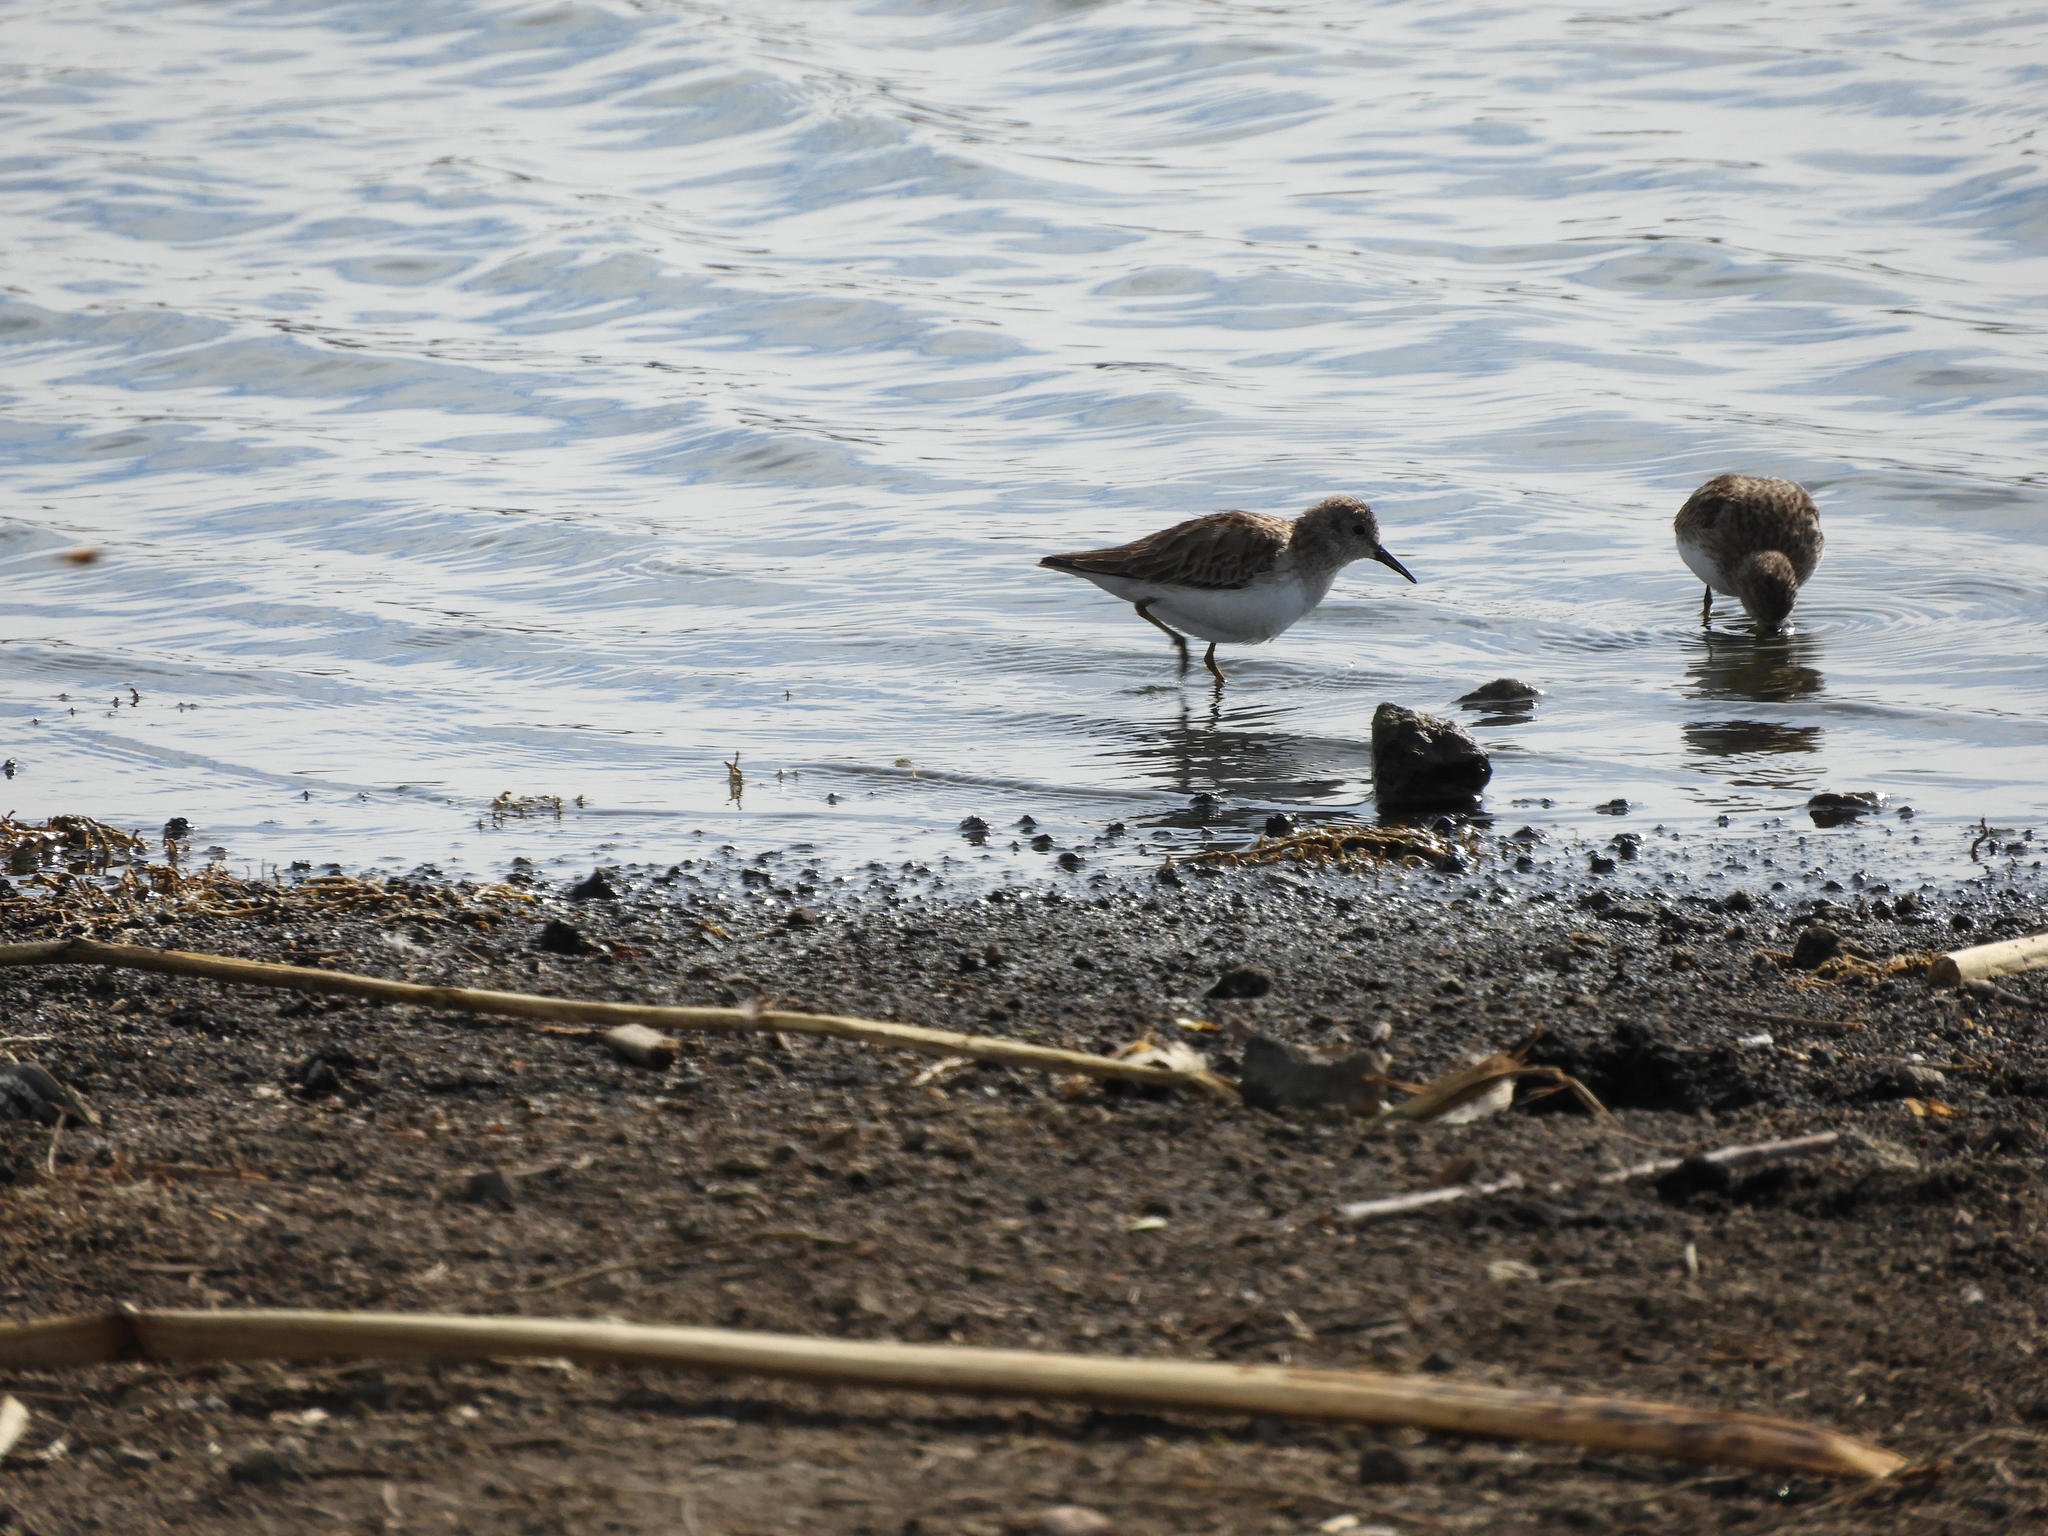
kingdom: Animalia
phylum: Chordata
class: Aves
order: Charadriiformes
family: Scolopacidae
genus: Calidris
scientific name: Calidris minutilla
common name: Least sandpiper
